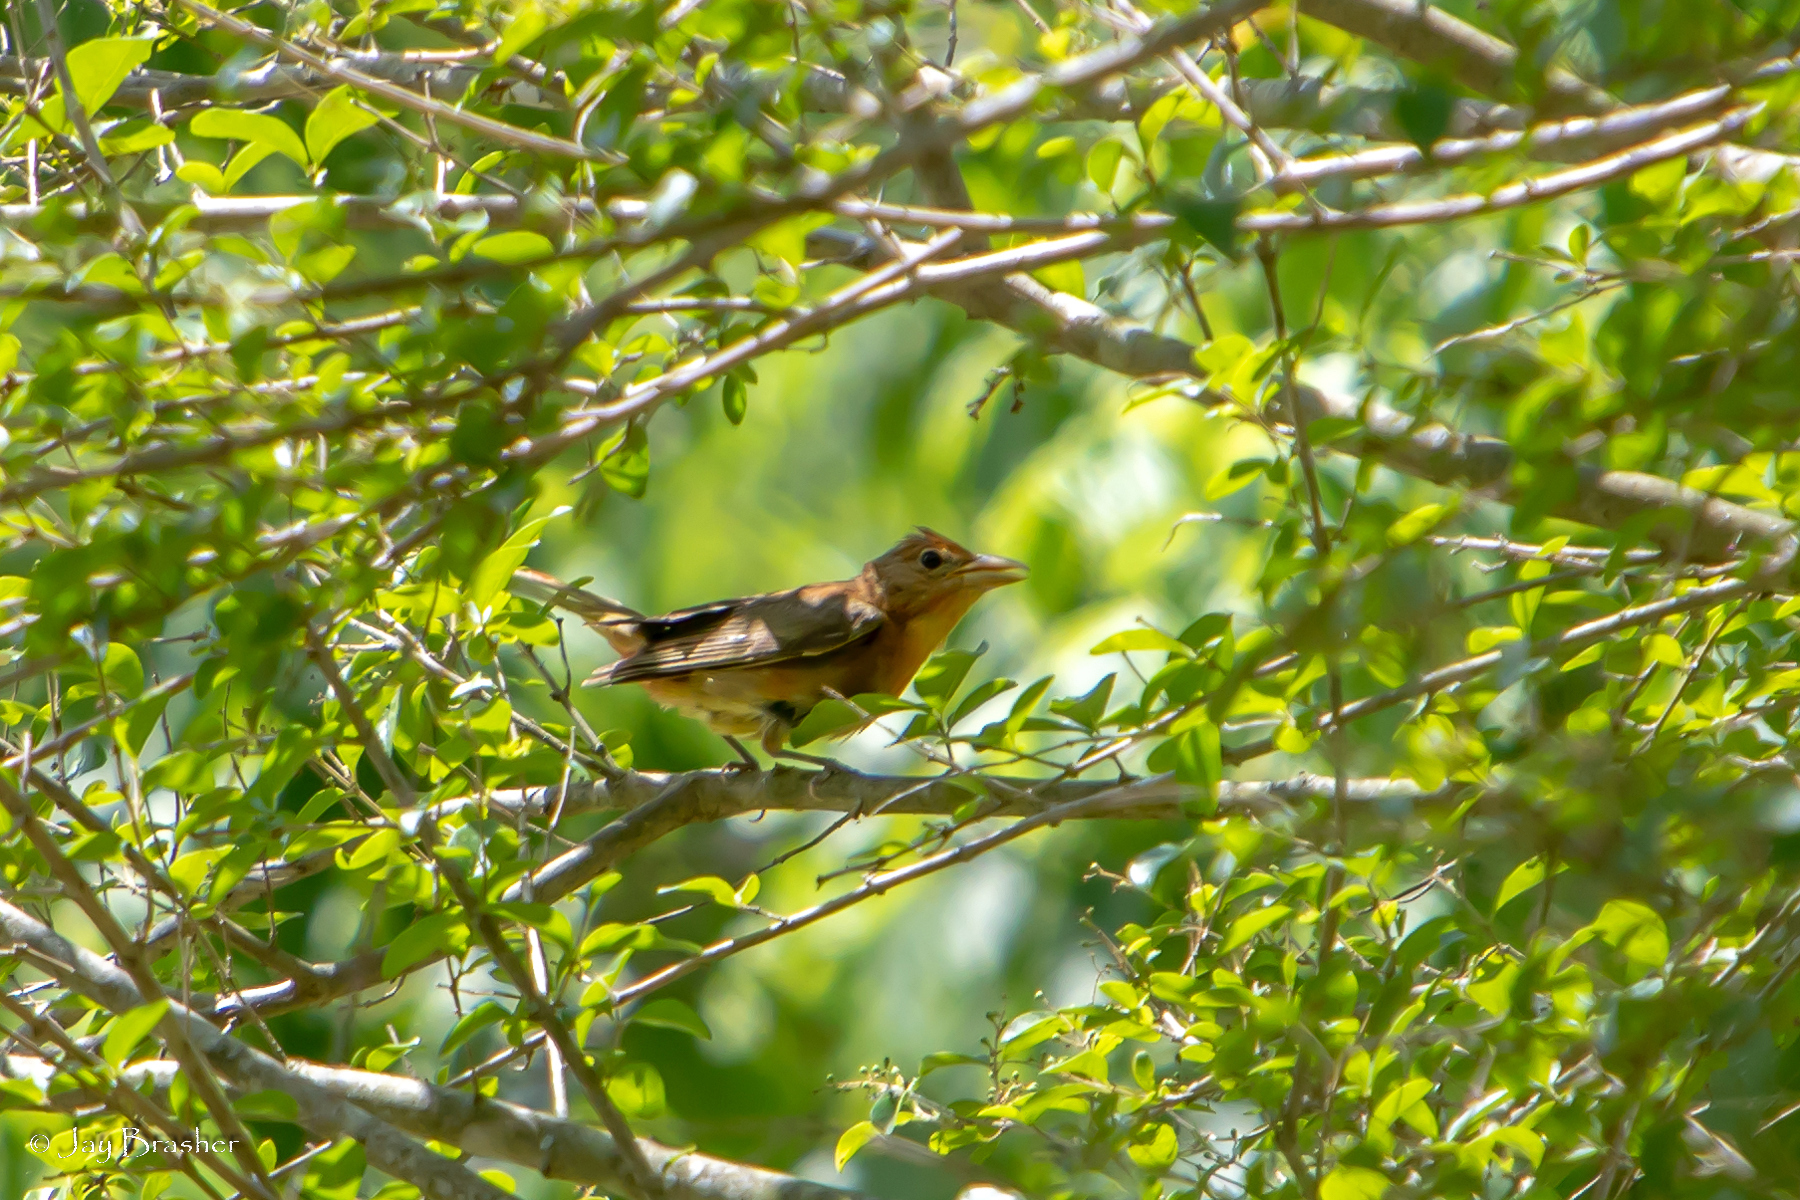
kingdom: Animalia
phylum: Chordata
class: Aves
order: Passeriformes
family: Cardinalidae
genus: Piranga
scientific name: Piranga rubra
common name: Summer tanager
